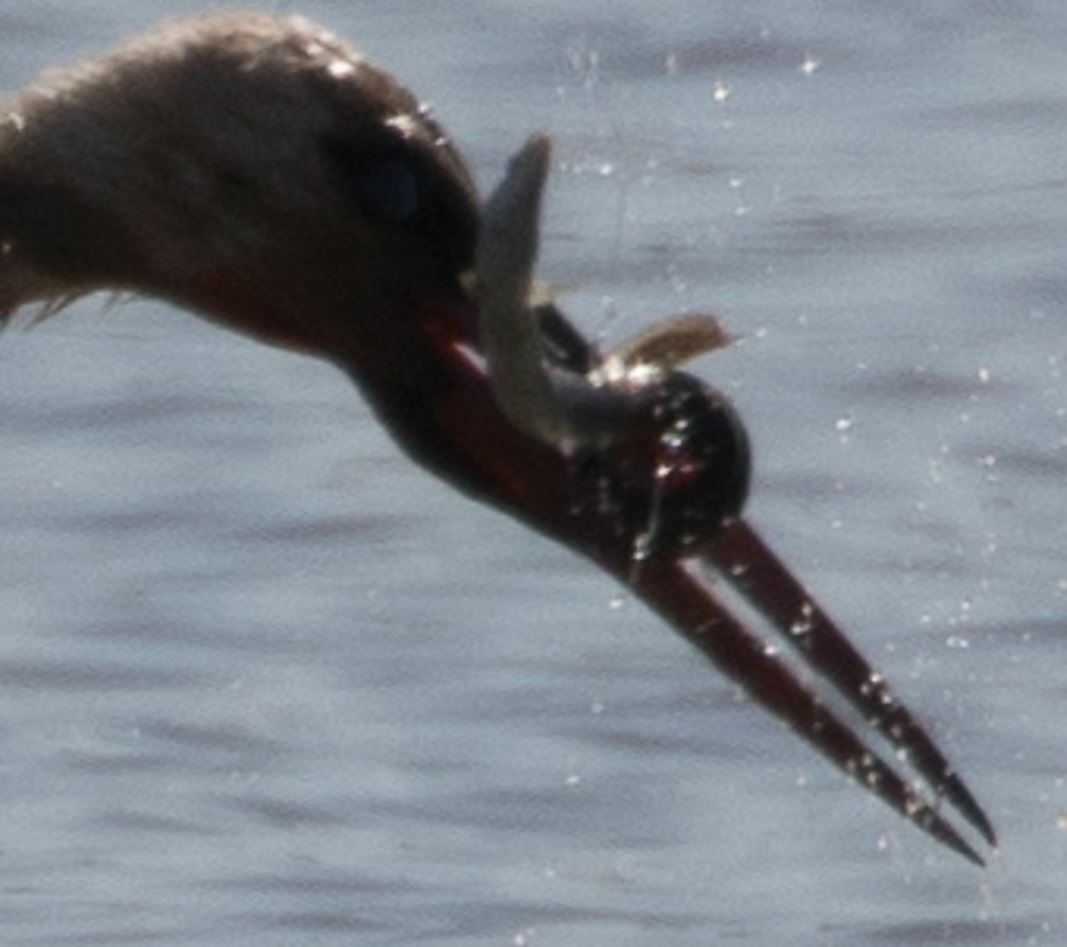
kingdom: Animalia
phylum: Chordata
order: Anguilliformes
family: Anguillidae
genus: Anguilla
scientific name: Anguilla anguilla
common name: European eel
